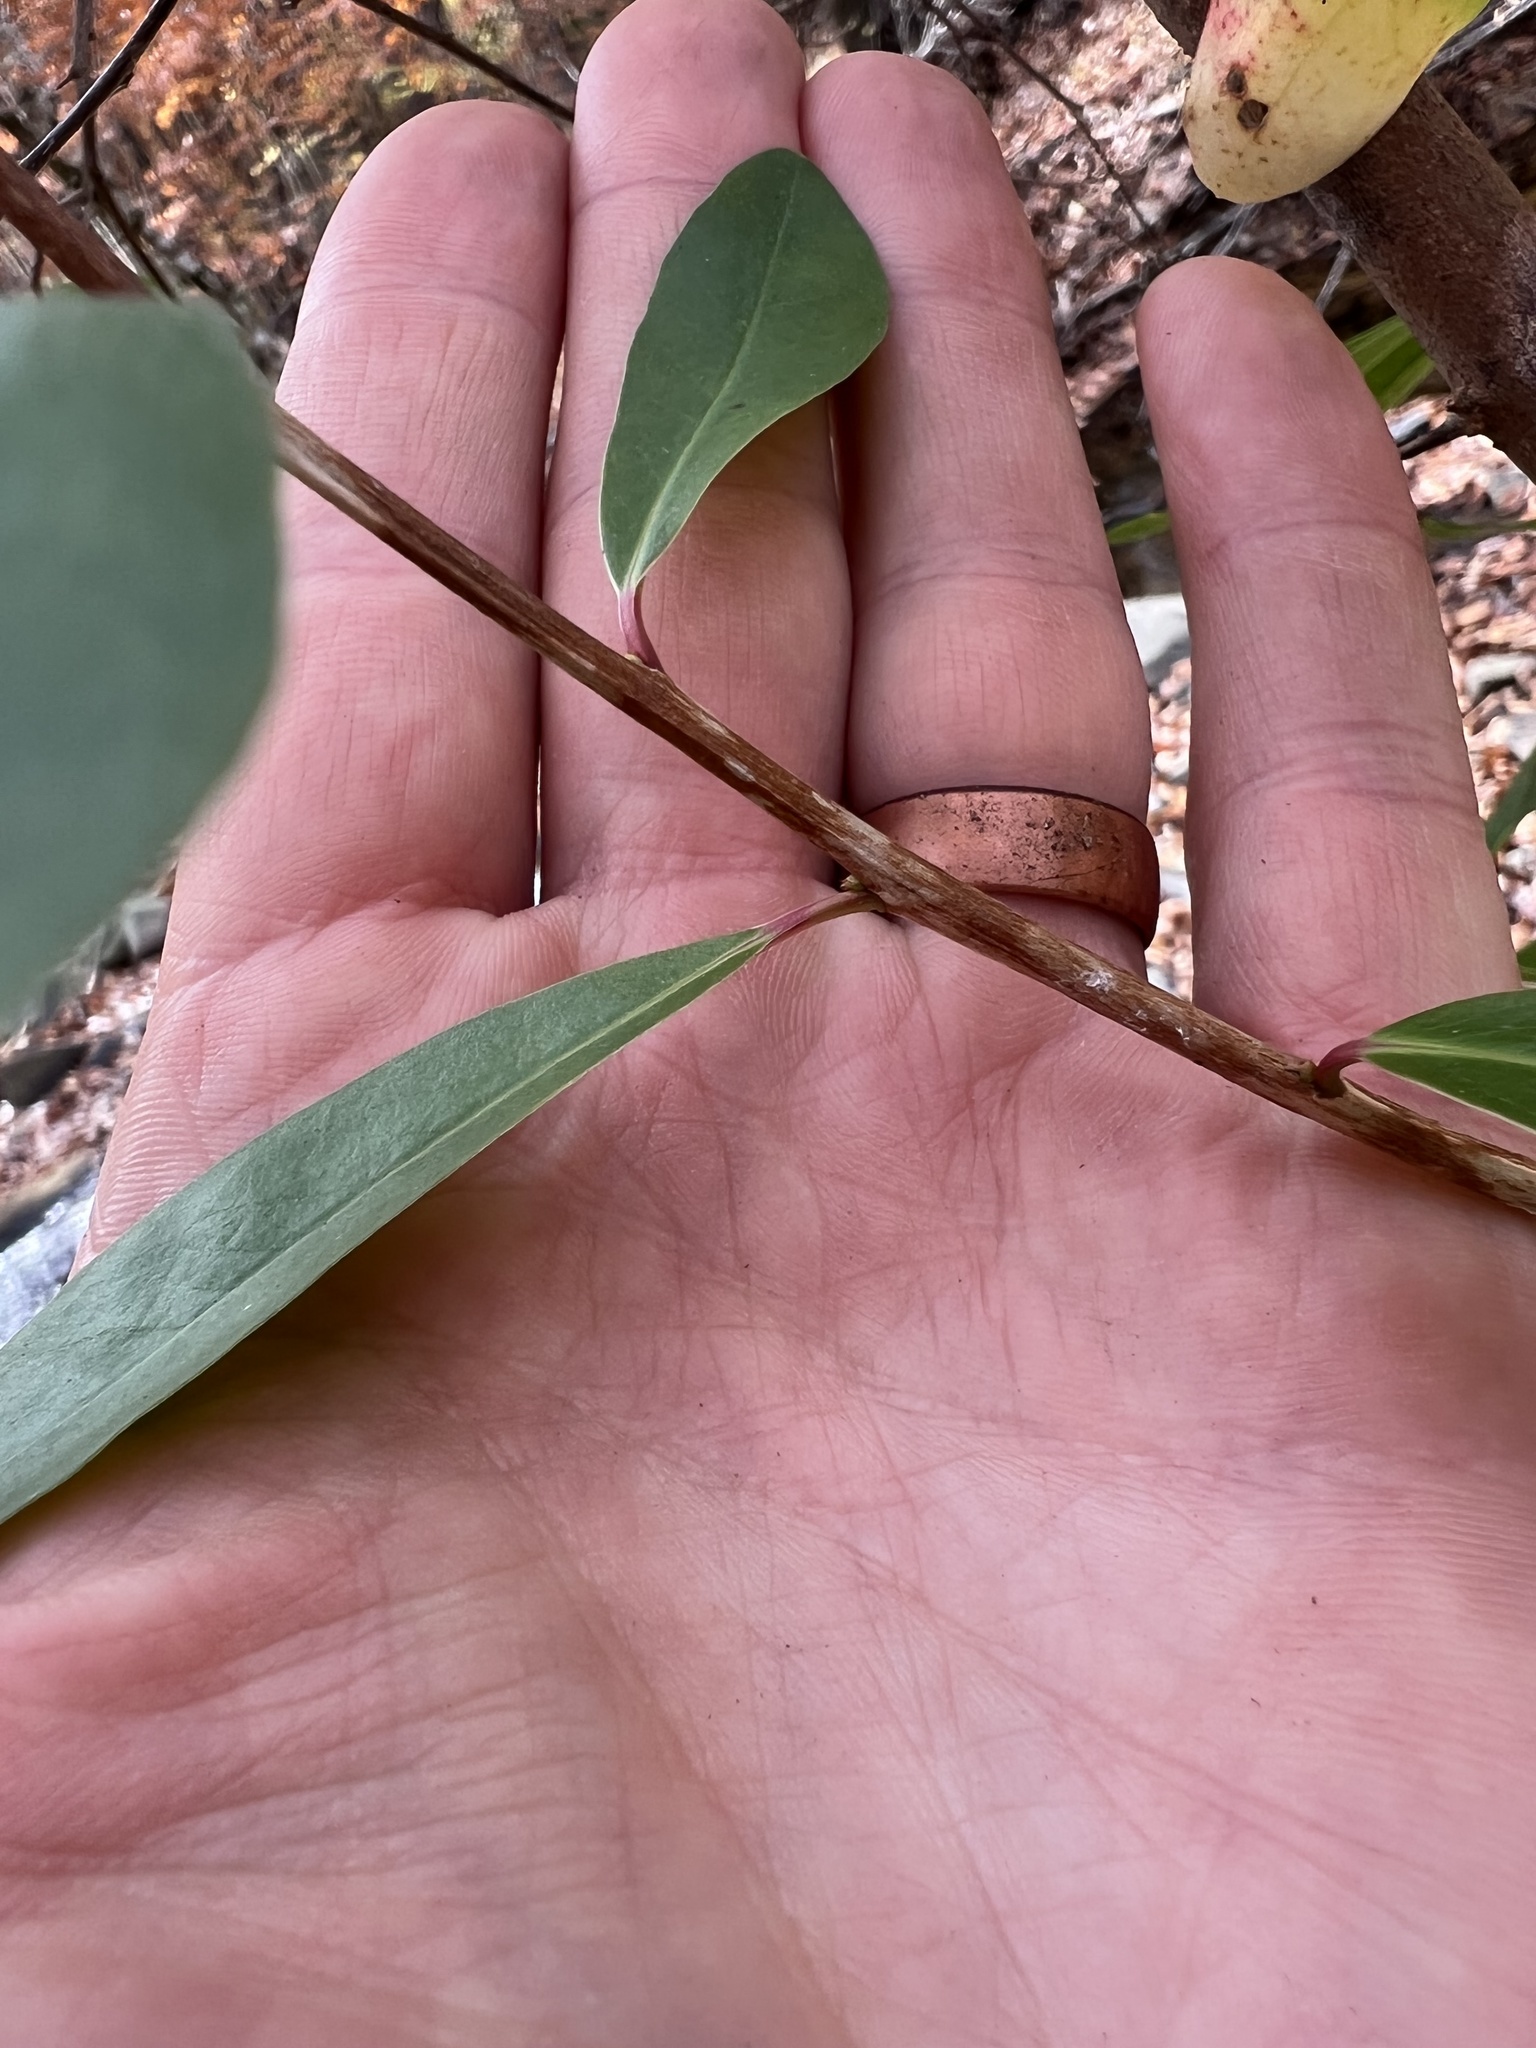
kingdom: Plantae
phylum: Tracheophyta
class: Magnoliopsida
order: Ericales
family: Cyrillaceae
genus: Cyrilla
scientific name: Cyrilla racemiflora
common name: Black titi
